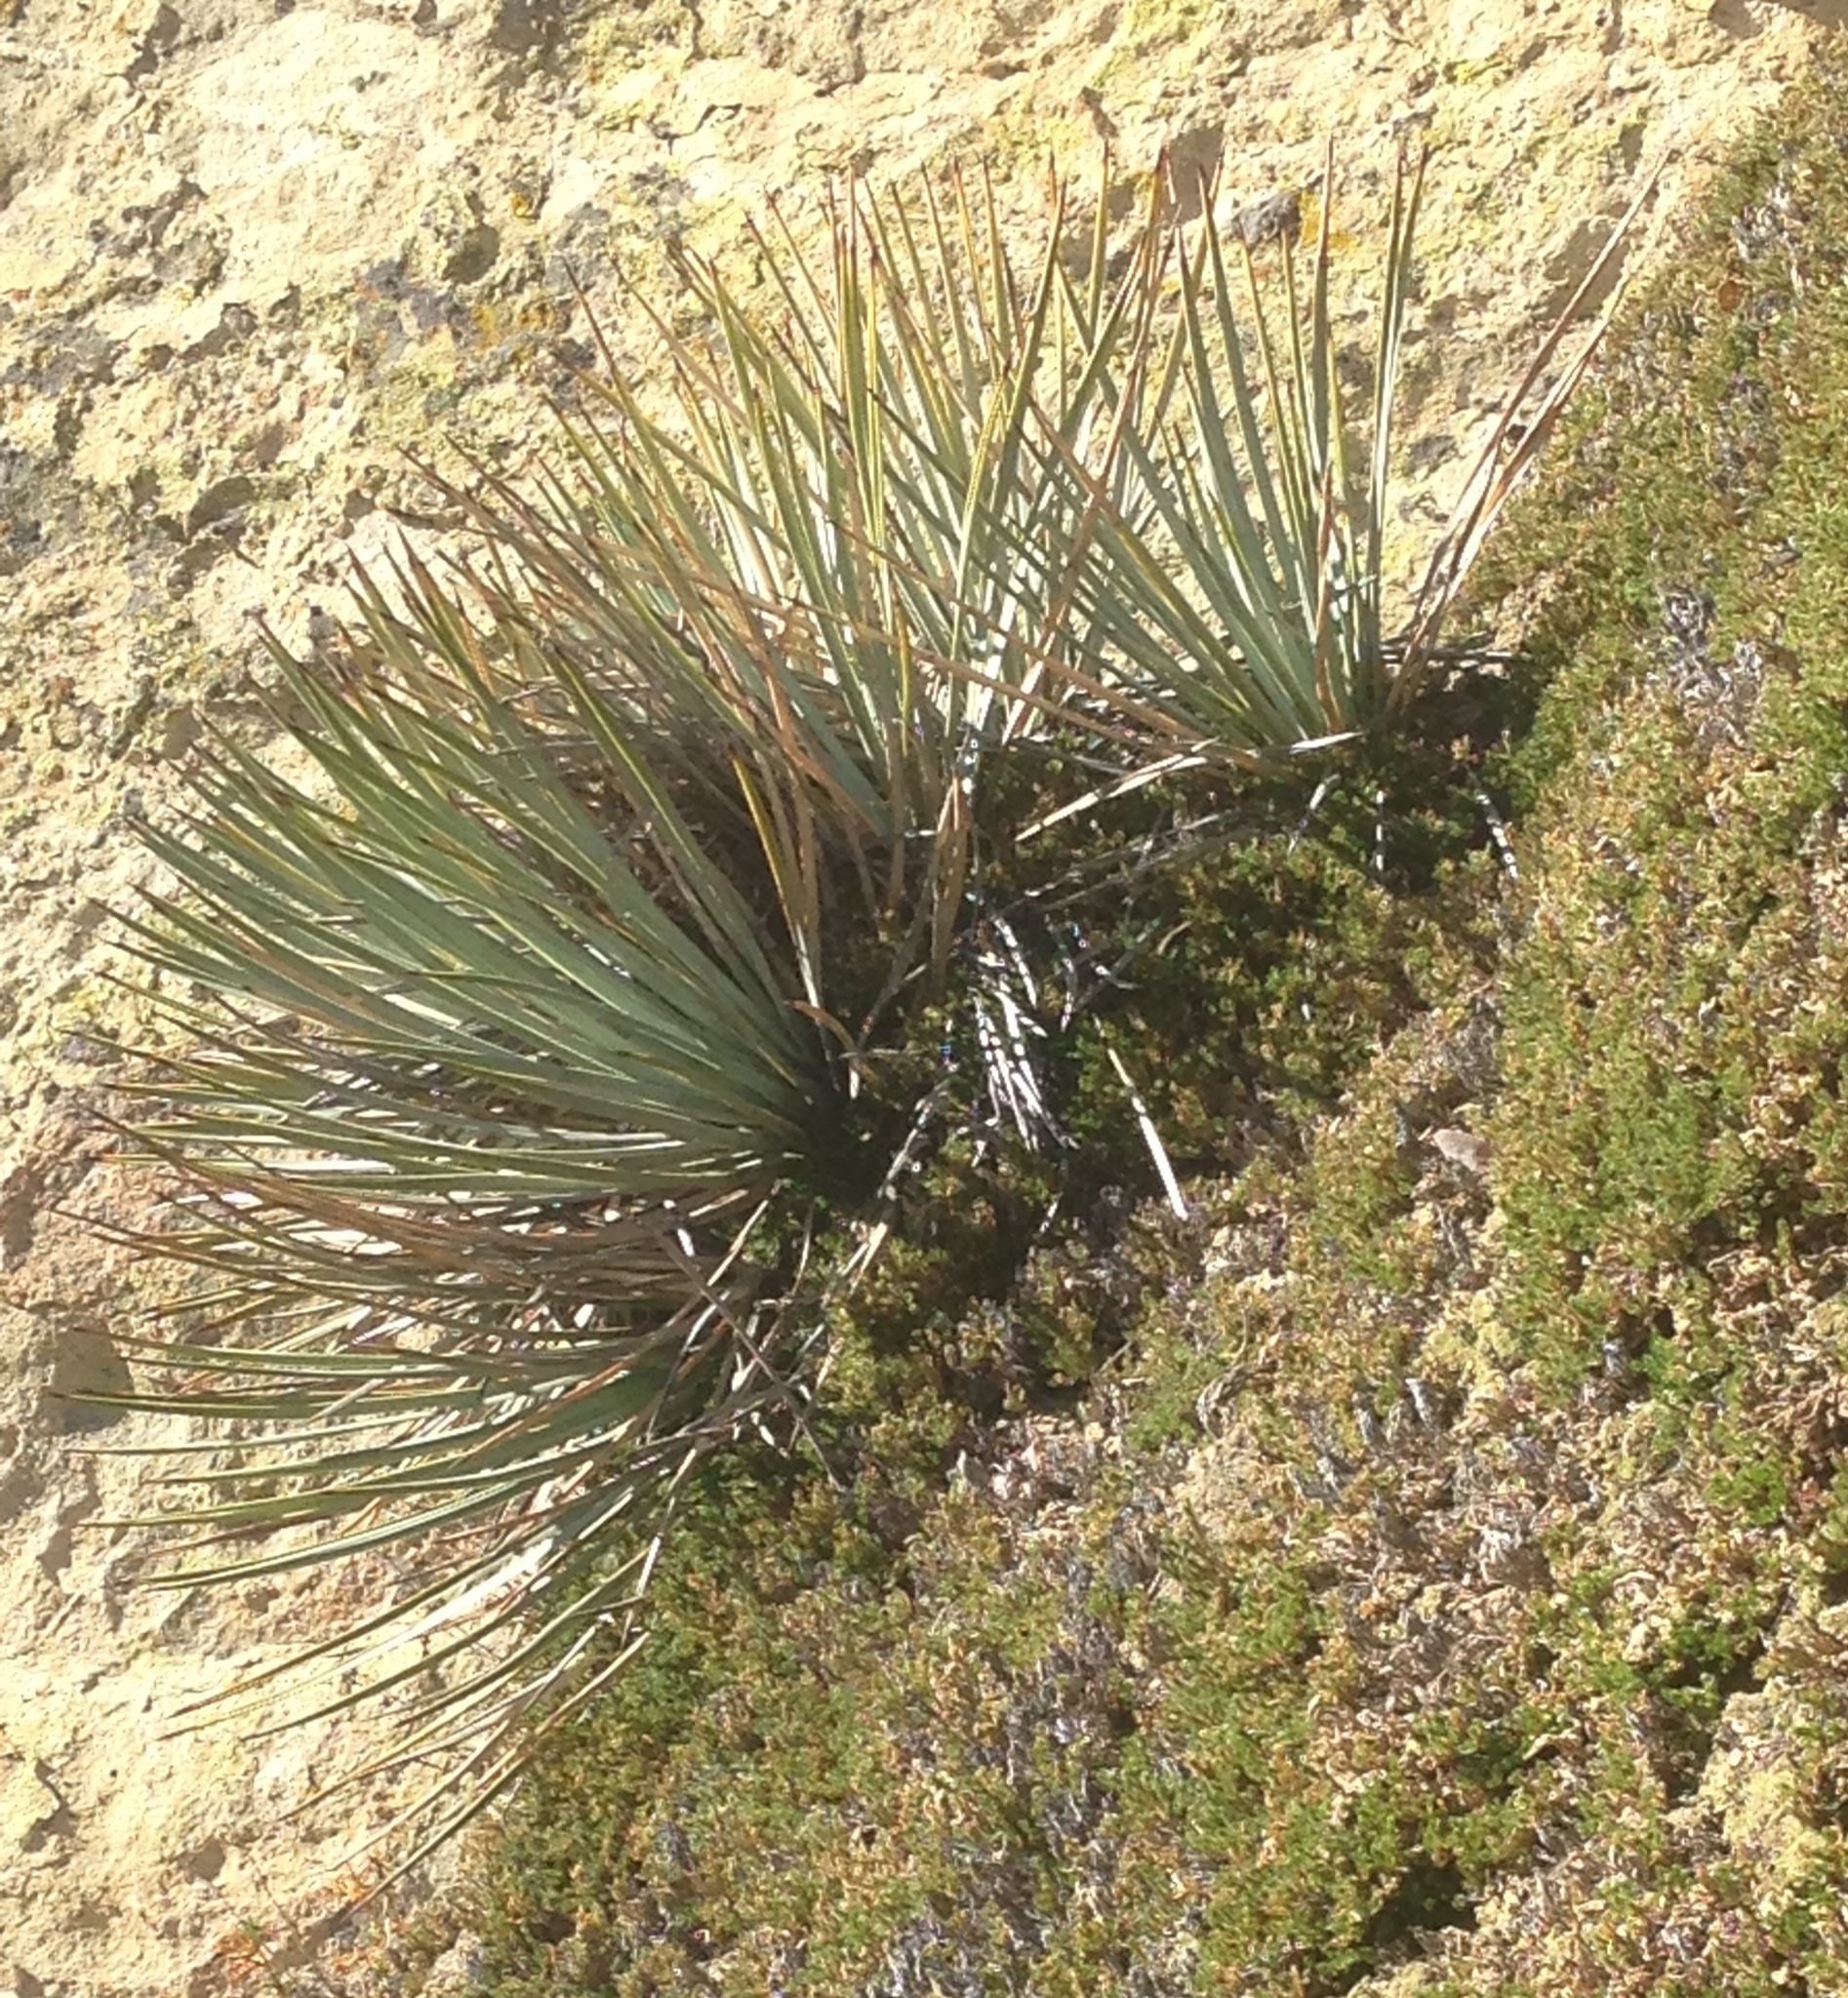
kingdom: Plantae
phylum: Tracheophyta
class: Liliopsida
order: Asparagales
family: Asparagaceae
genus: Hesperoyucca
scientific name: Hesperoyucca whipplei
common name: Our lord's-candle
